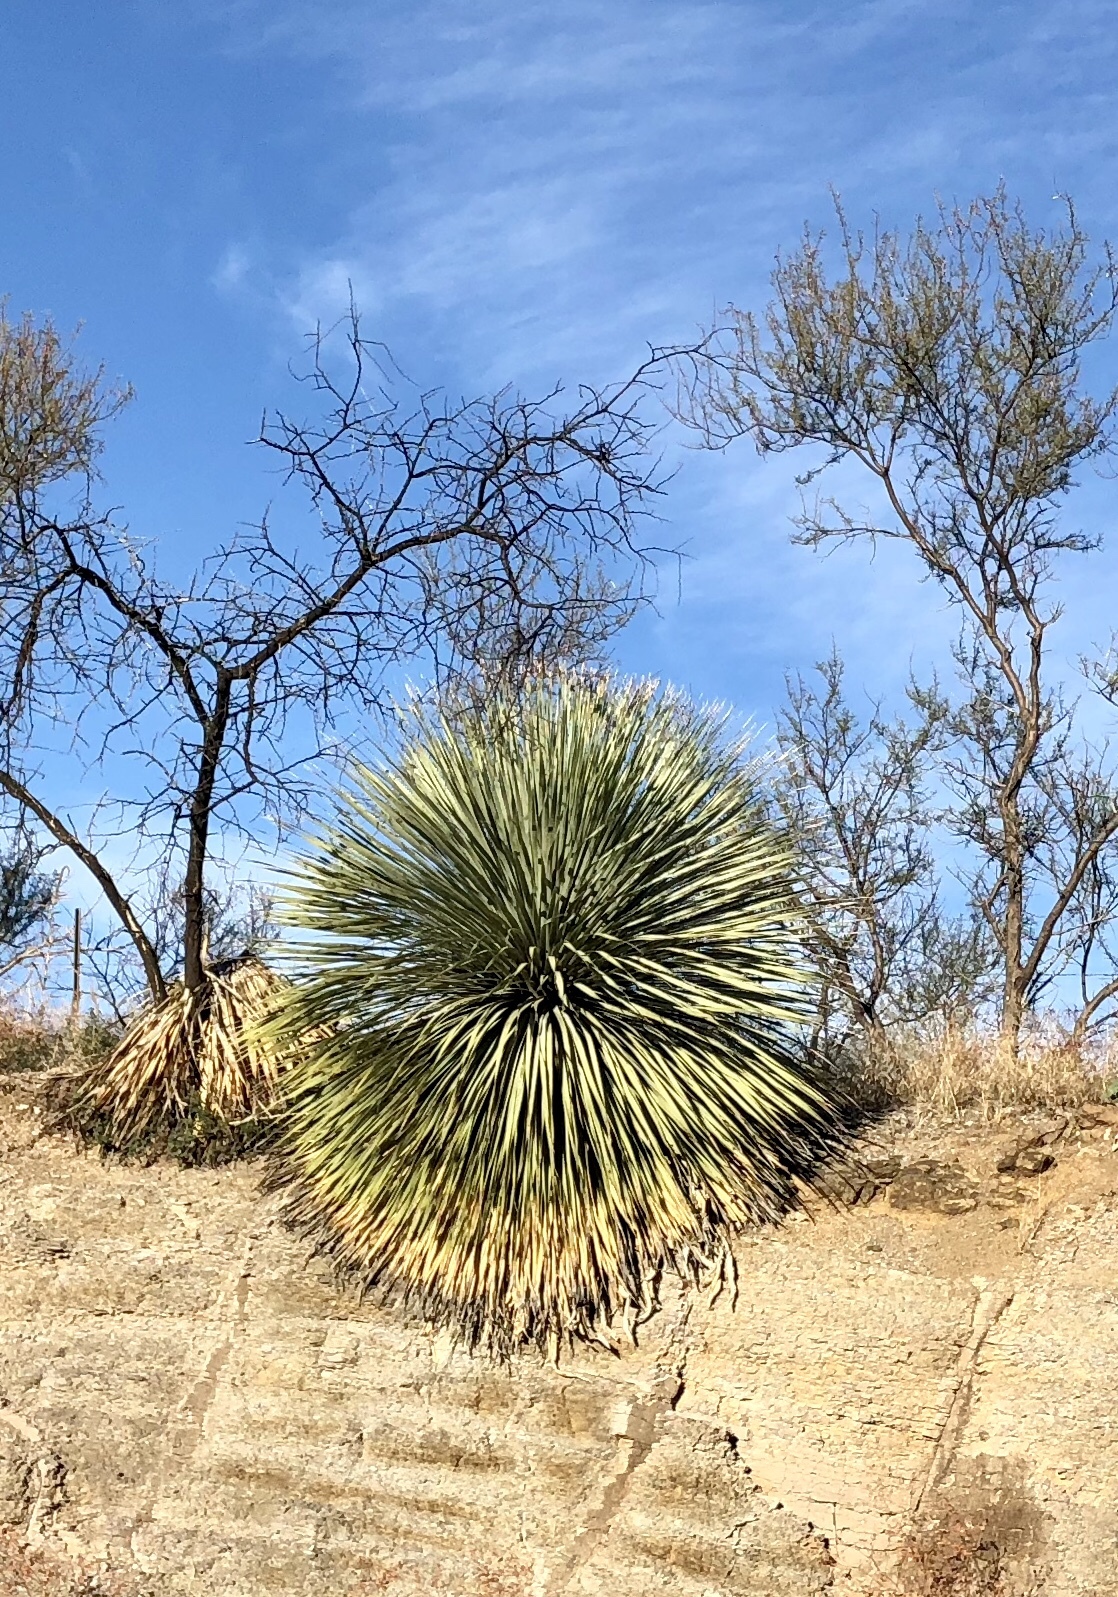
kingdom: Plantae
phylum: Tracheophyta
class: Liliopsida
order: Asparagales
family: Asparagaceae
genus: Dasylirion
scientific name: Dasylirion wheeleri
